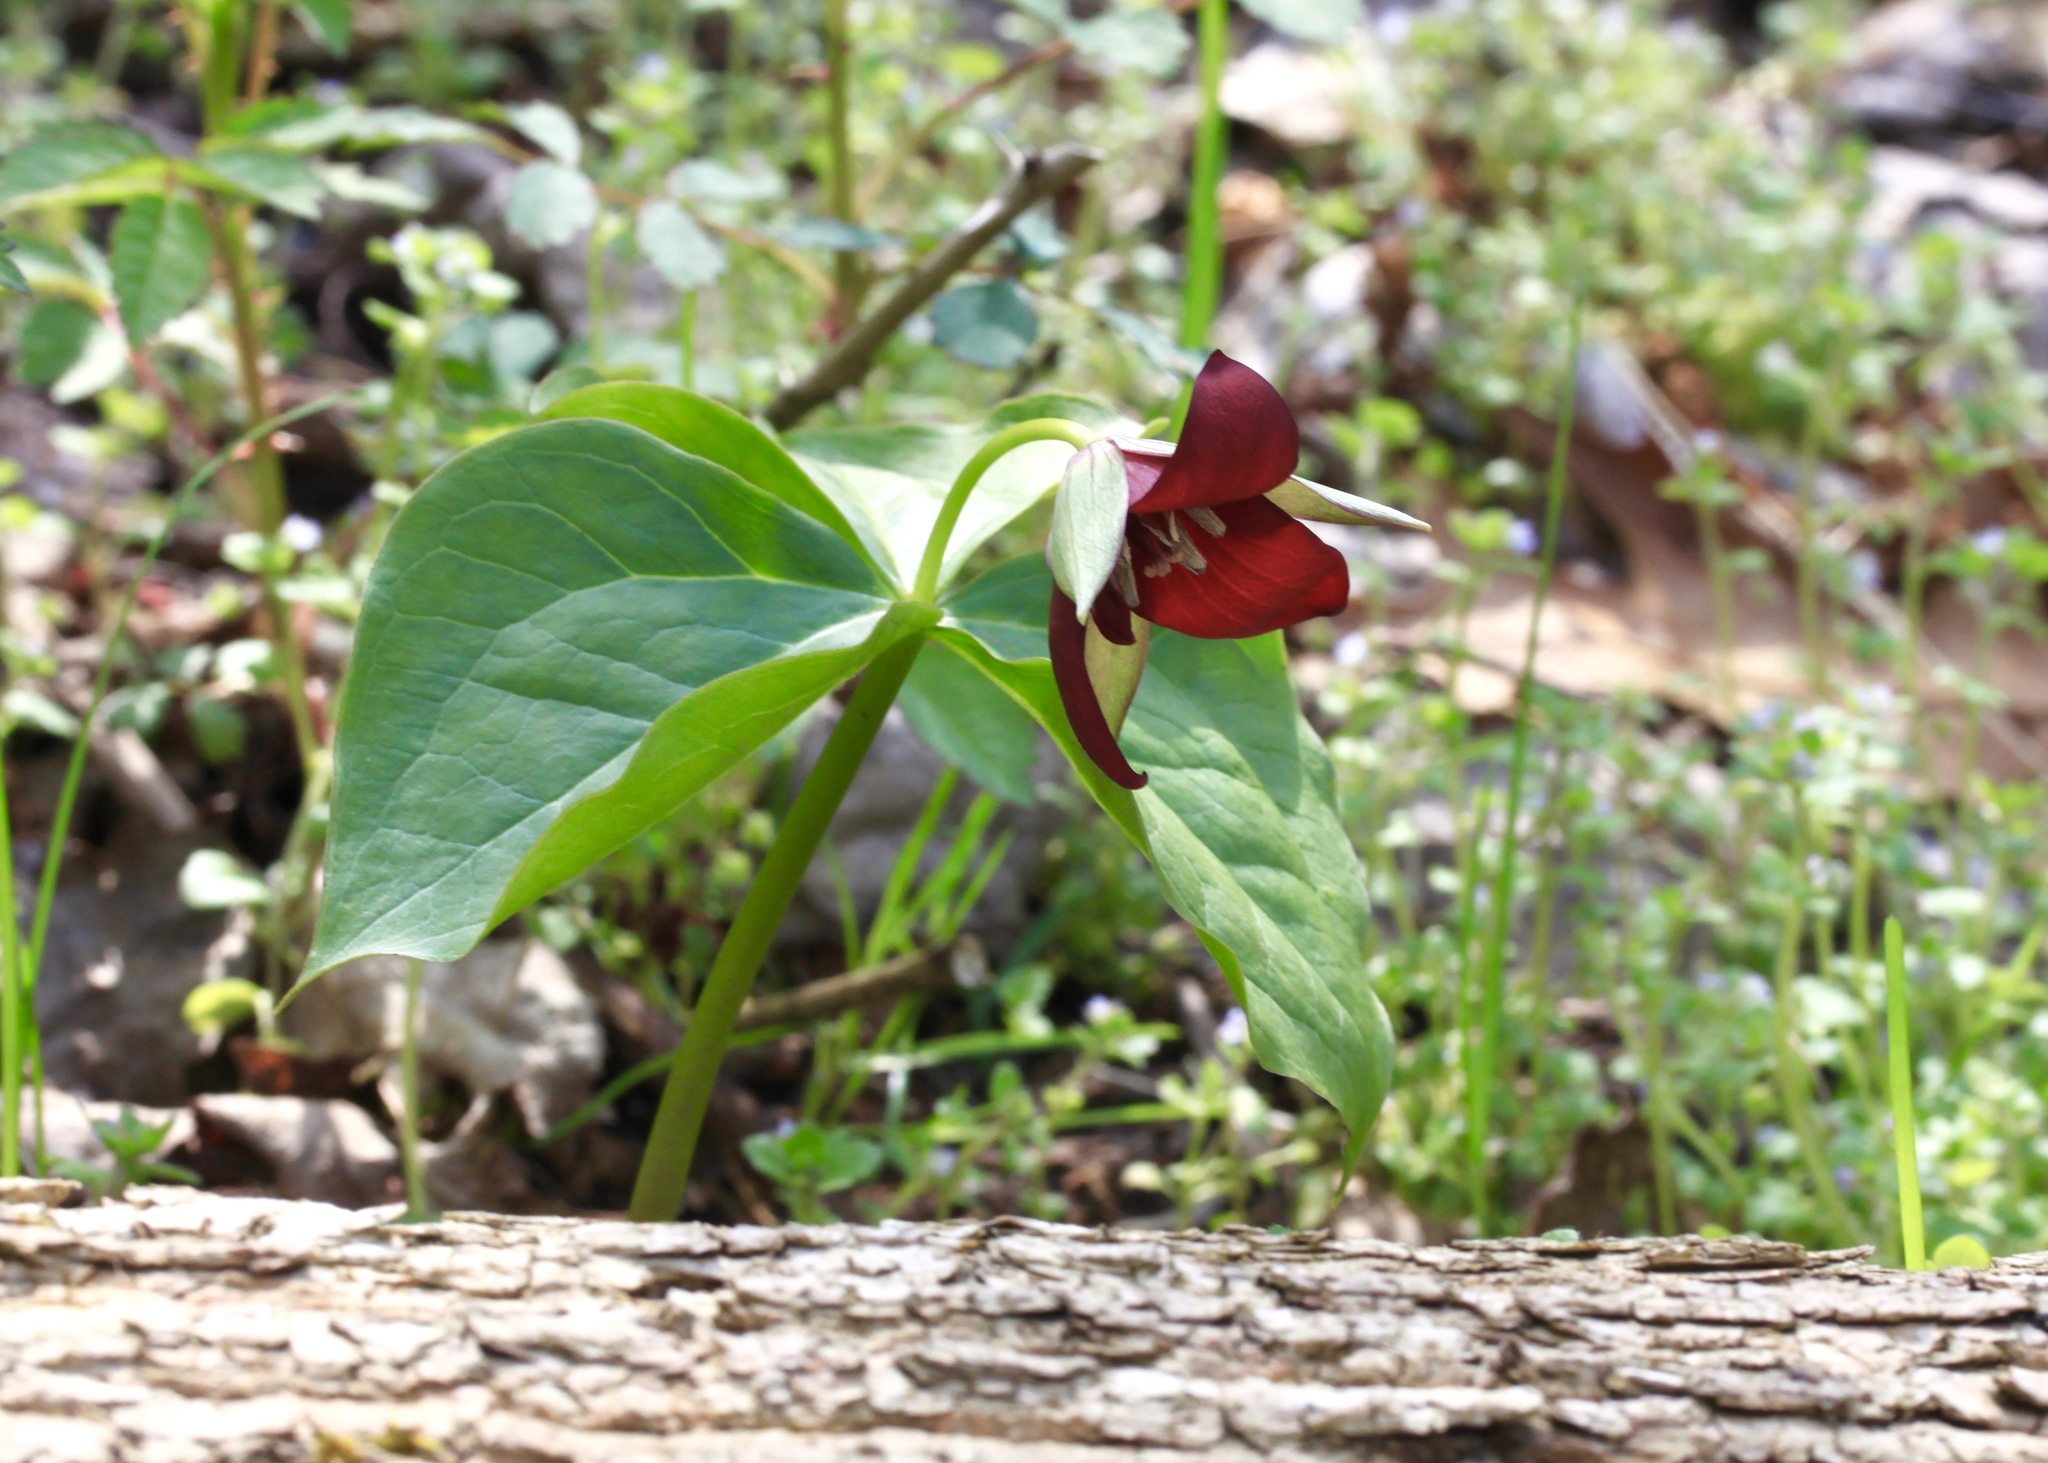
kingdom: Plantae
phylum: Tracheophyta
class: Liliopsida
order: Liliales
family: Melanthiaceae
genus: Trillium
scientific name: Trillium erectum
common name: Purple trillium
